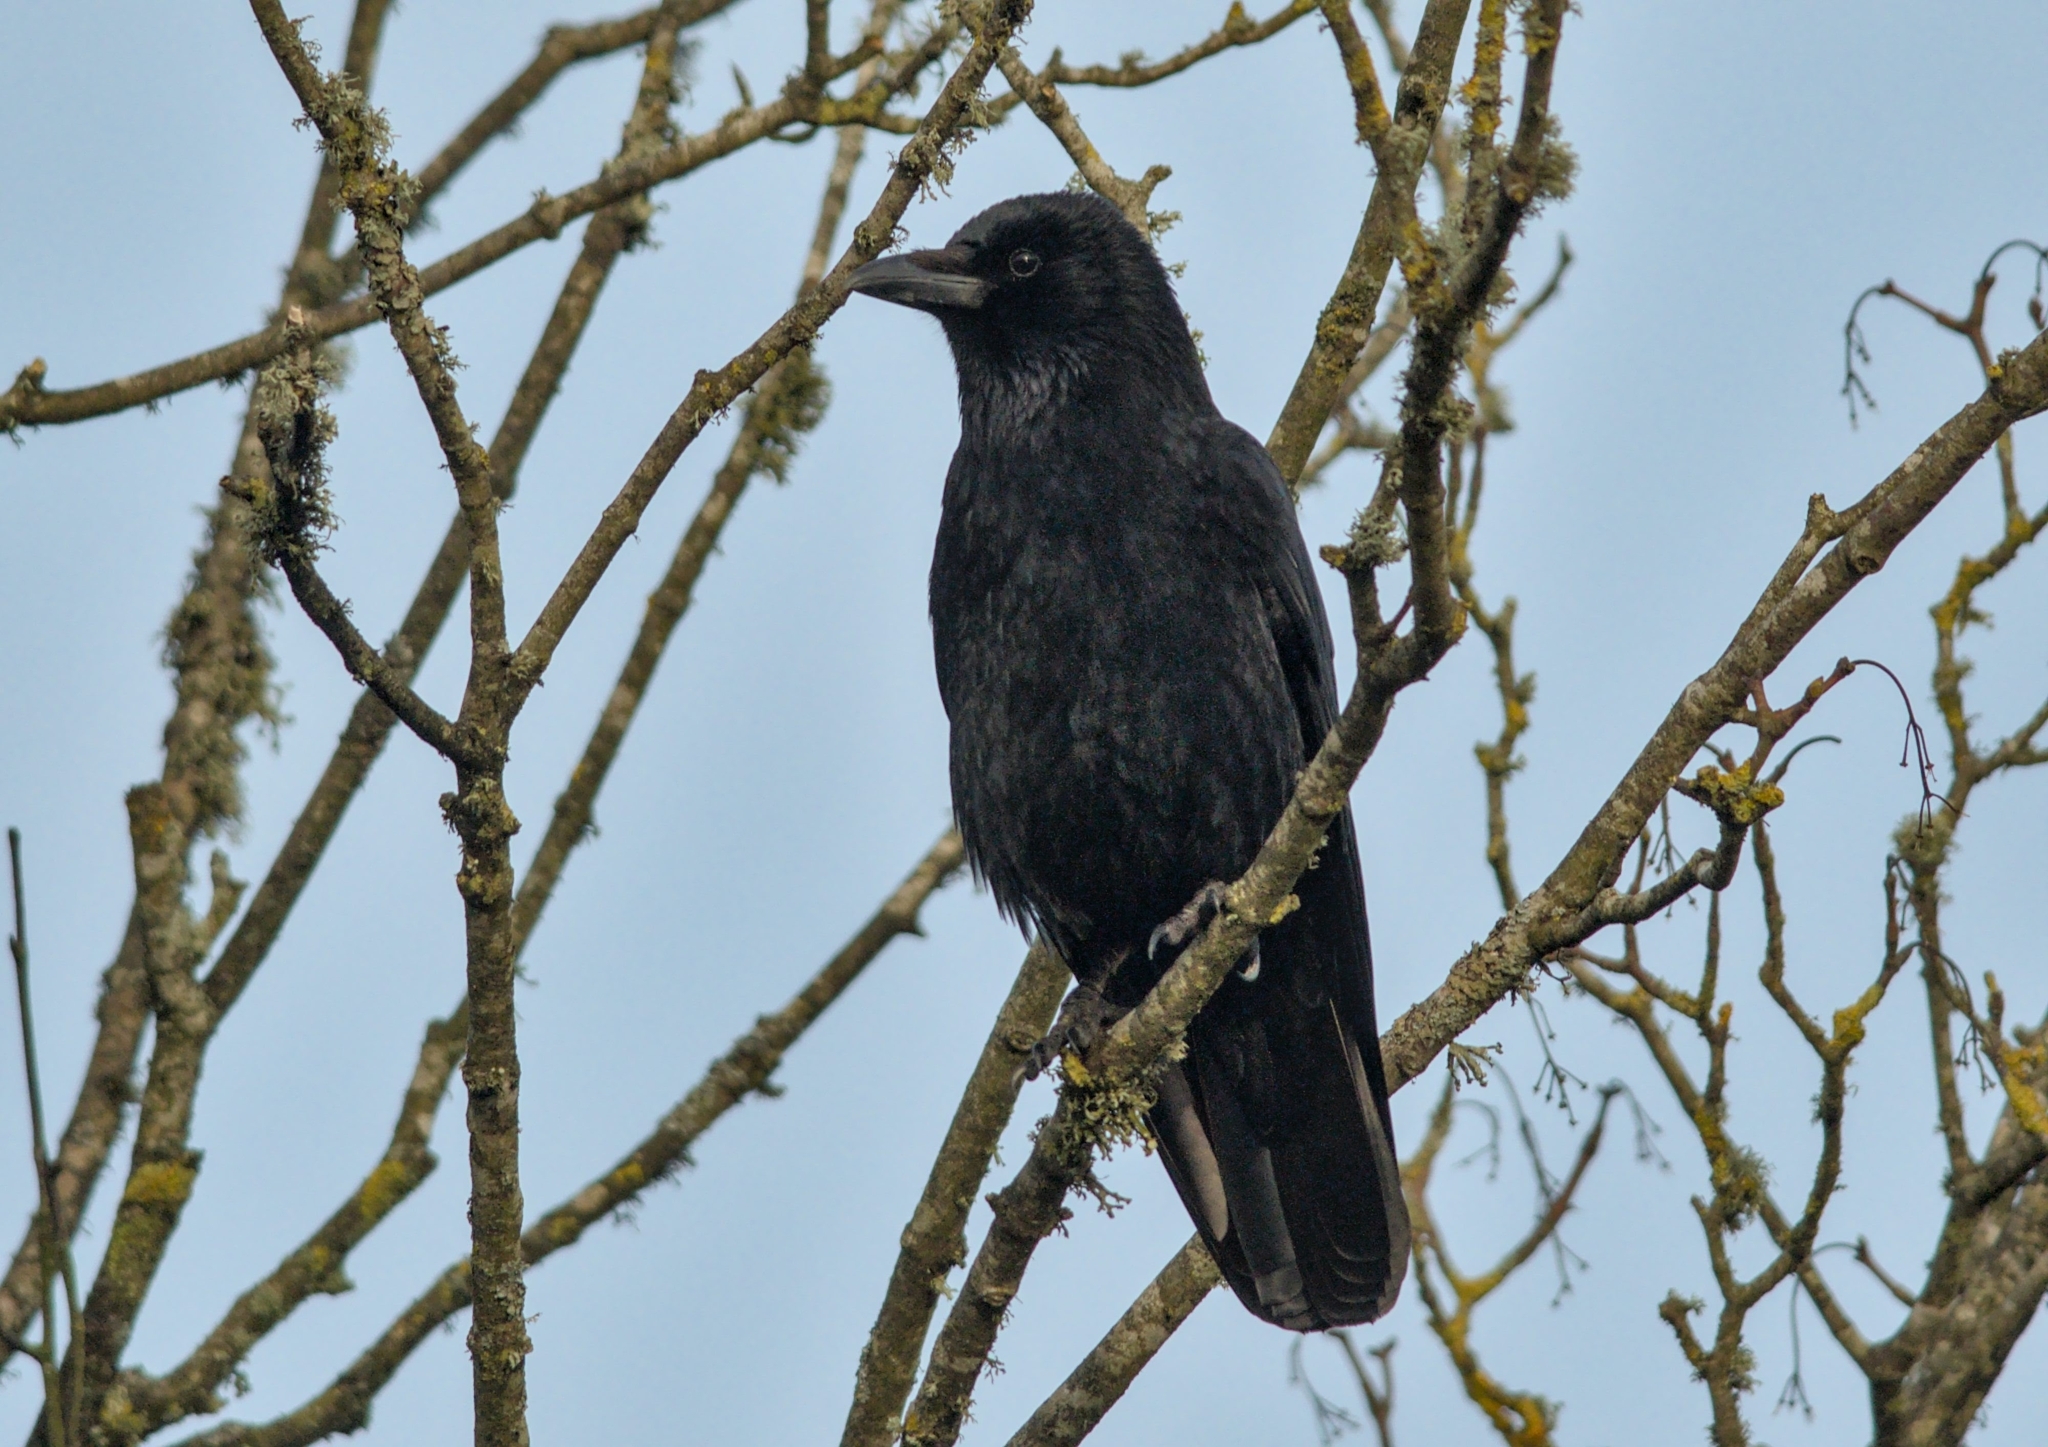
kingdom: Animalia
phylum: Chordata
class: Aves
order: Passeriformes
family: Corvidae
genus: Corvus
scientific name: Corvus corone
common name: Carrion crow
